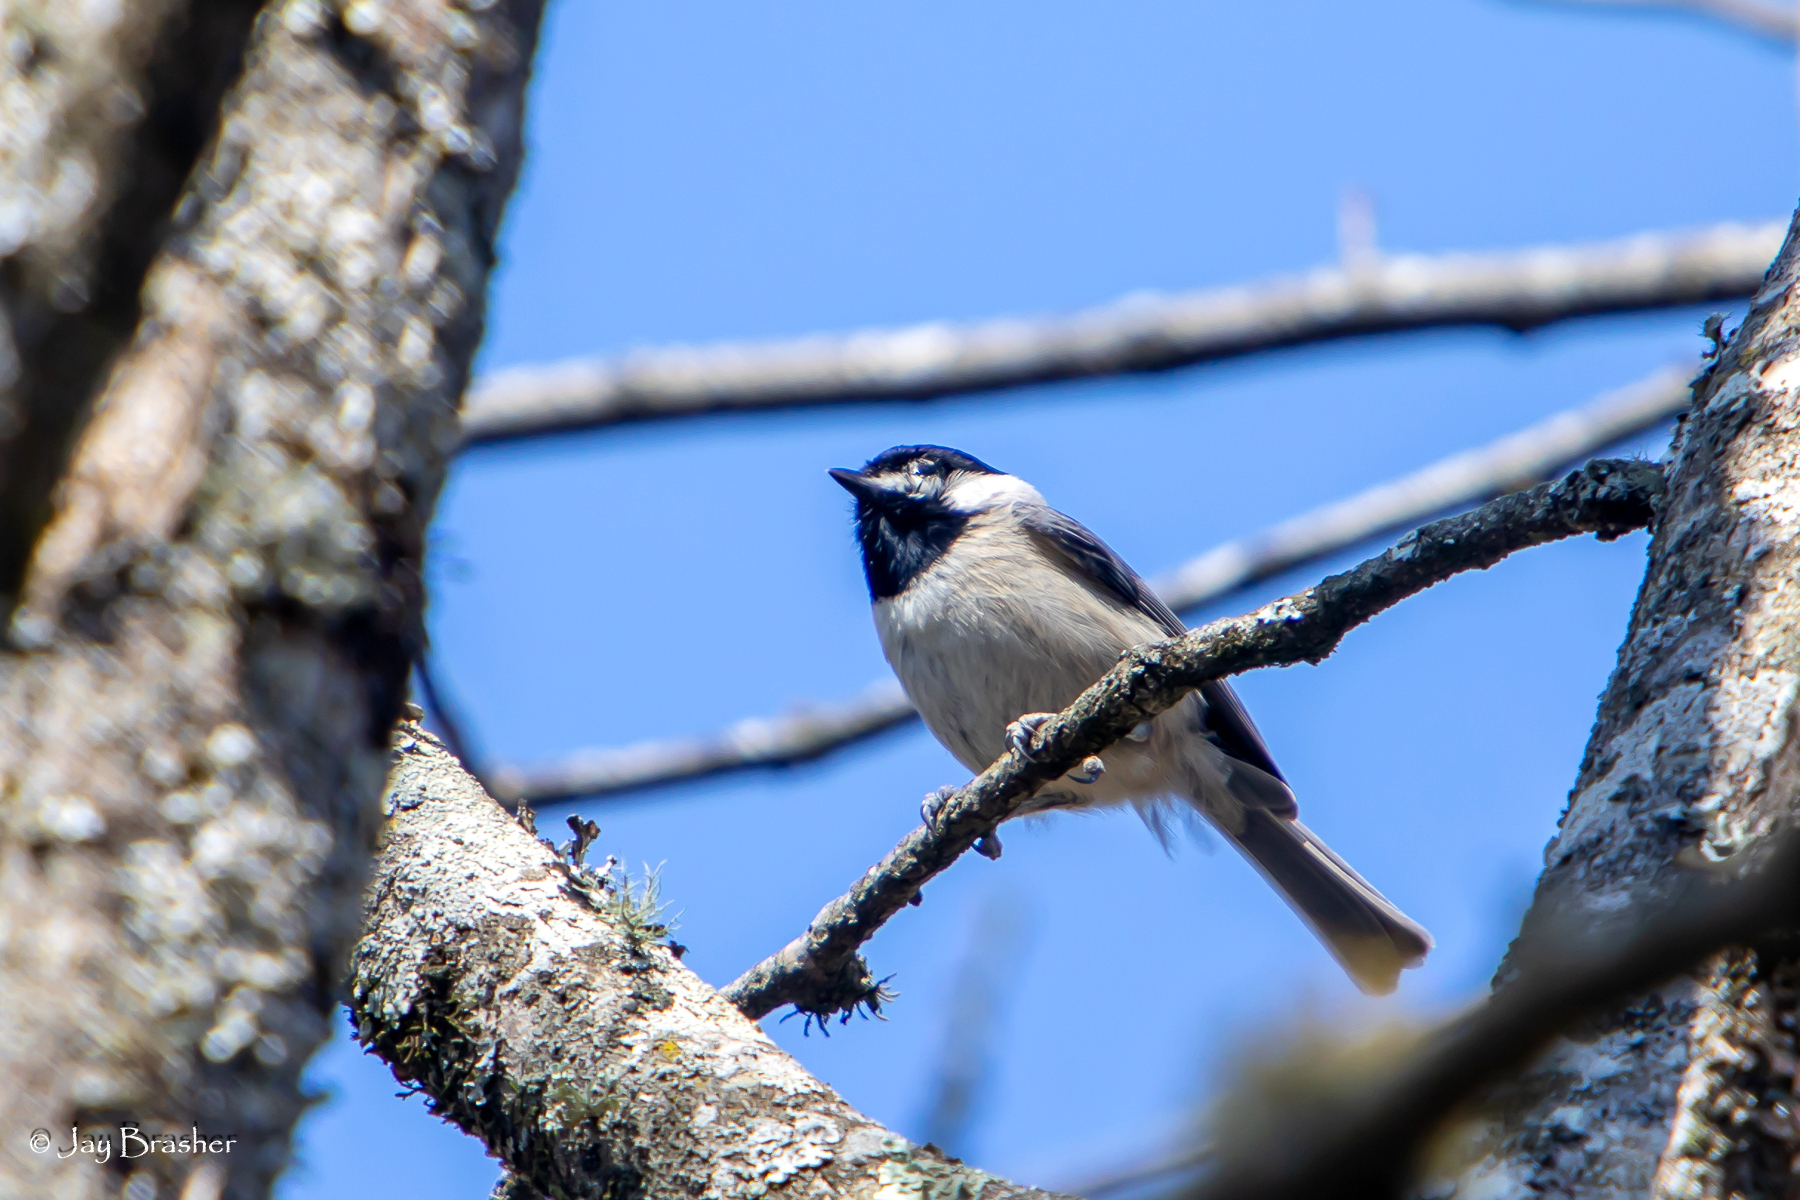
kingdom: Animalia
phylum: Chordata
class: Aves
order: Passeriformes
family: Paridae
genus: Poecile
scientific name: Poecile carolinensis
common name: Carolina chickadee
